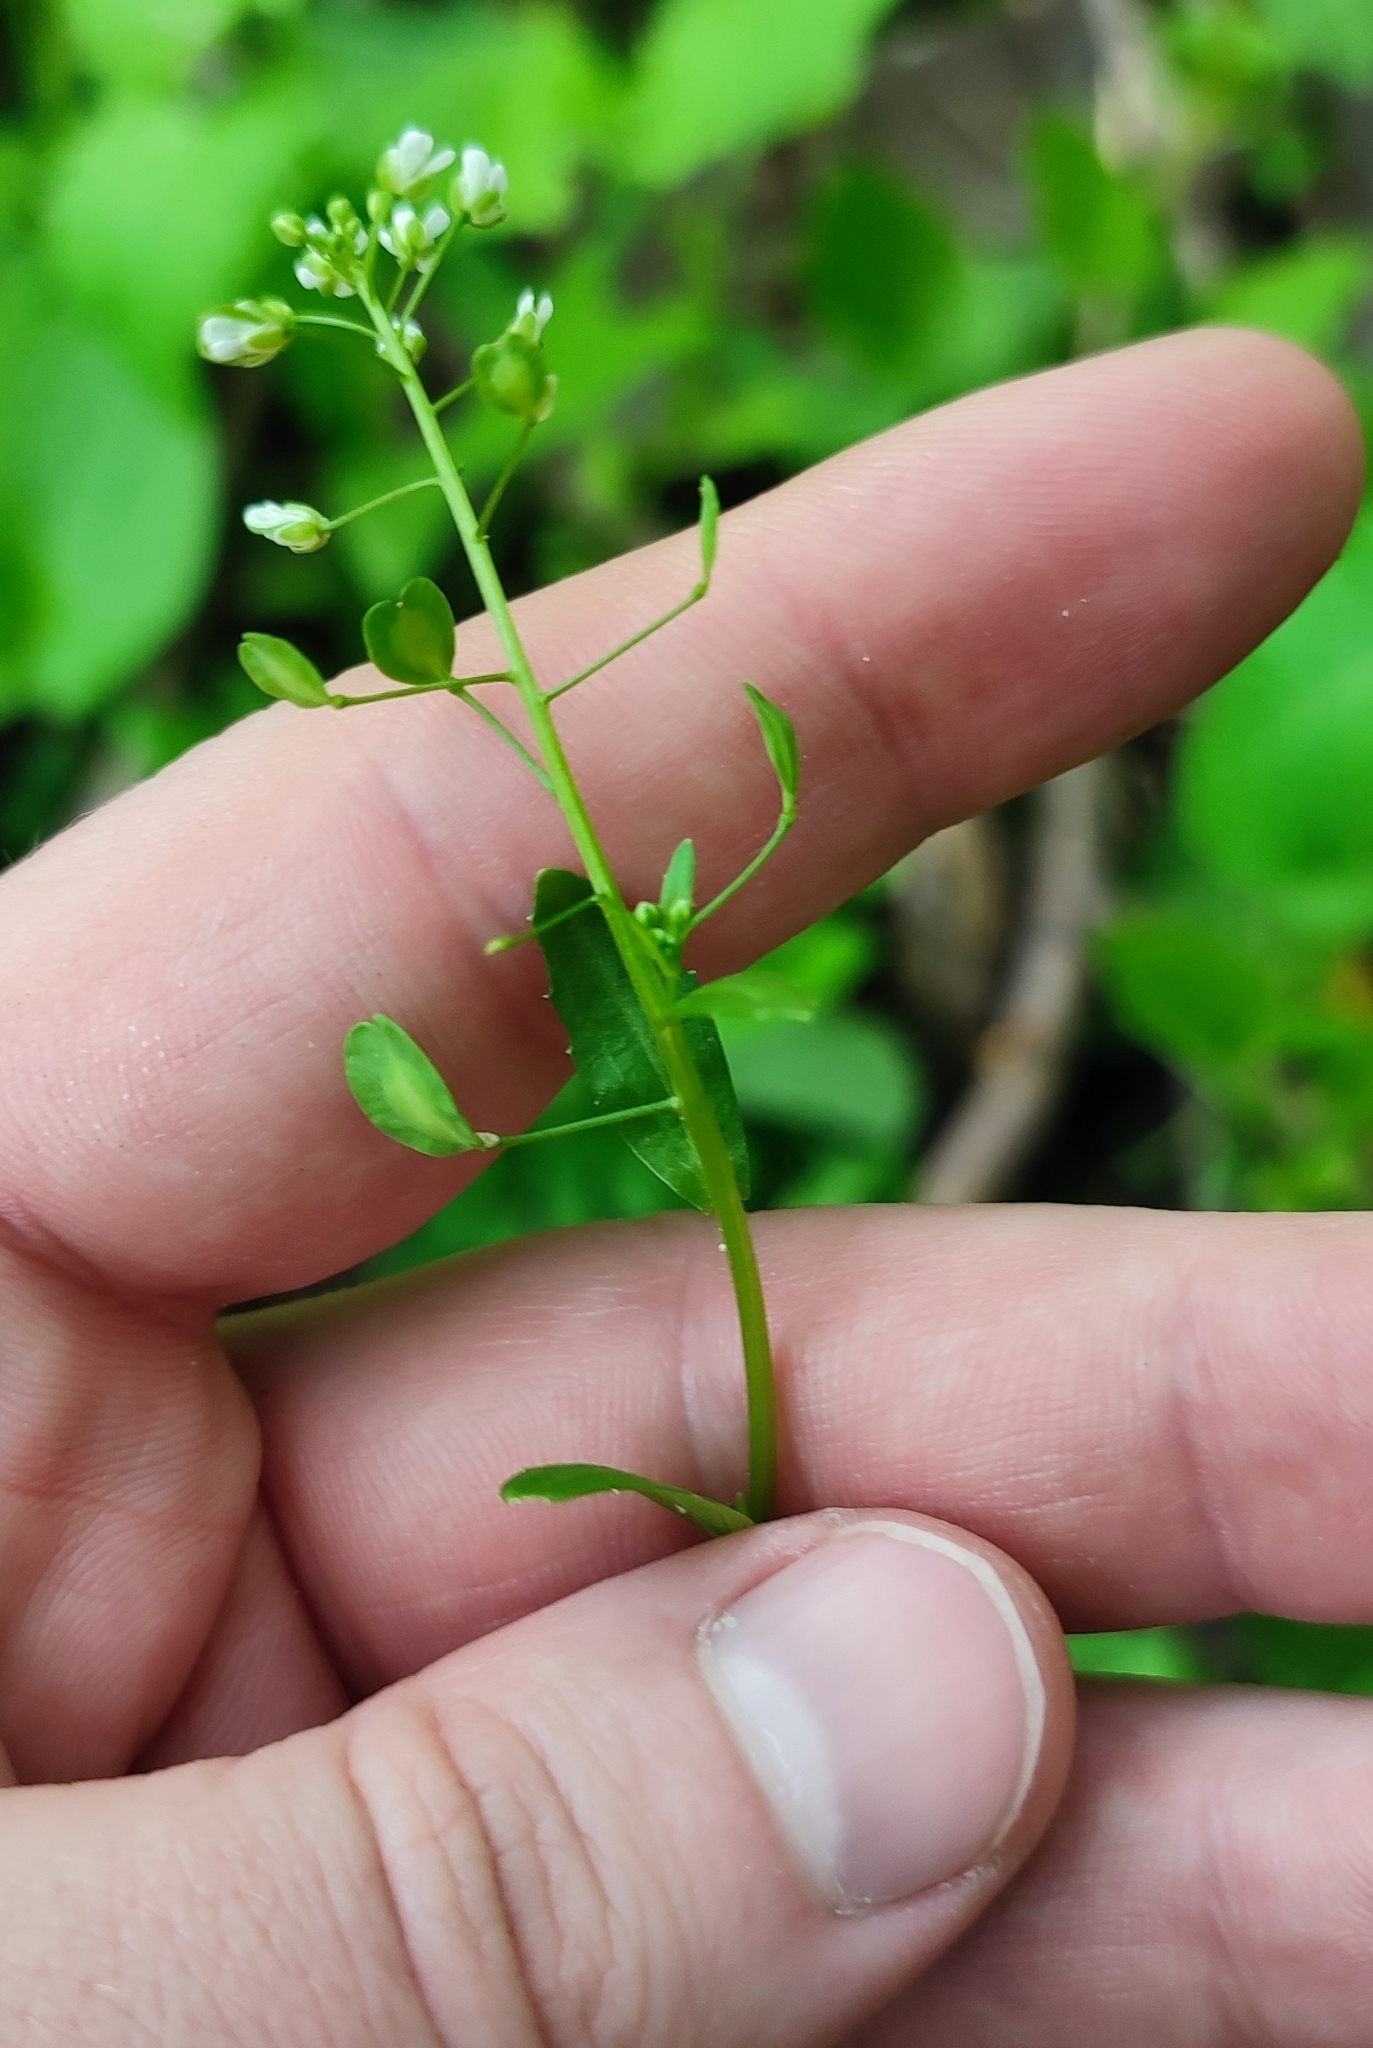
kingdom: Plantae
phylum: Tracheophyta
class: Magnoliopsida
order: Brassicales
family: Brassicaceae
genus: Thlaspi
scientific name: Thlaspi arvense
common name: Field pennycress
